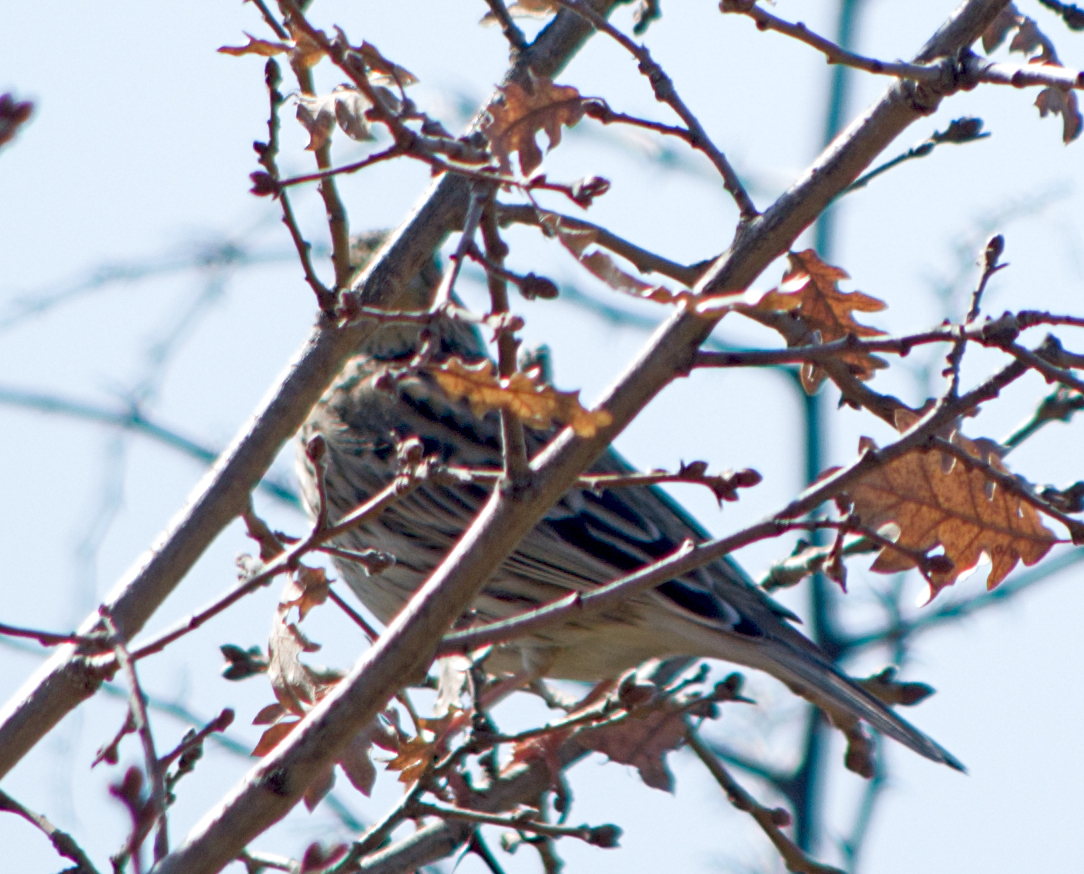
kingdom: Animalia
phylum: Chordata
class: Aves
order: Passeriformes
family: Emberizidae
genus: Emberiza
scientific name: Emberiza calandra
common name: Corn bunting
